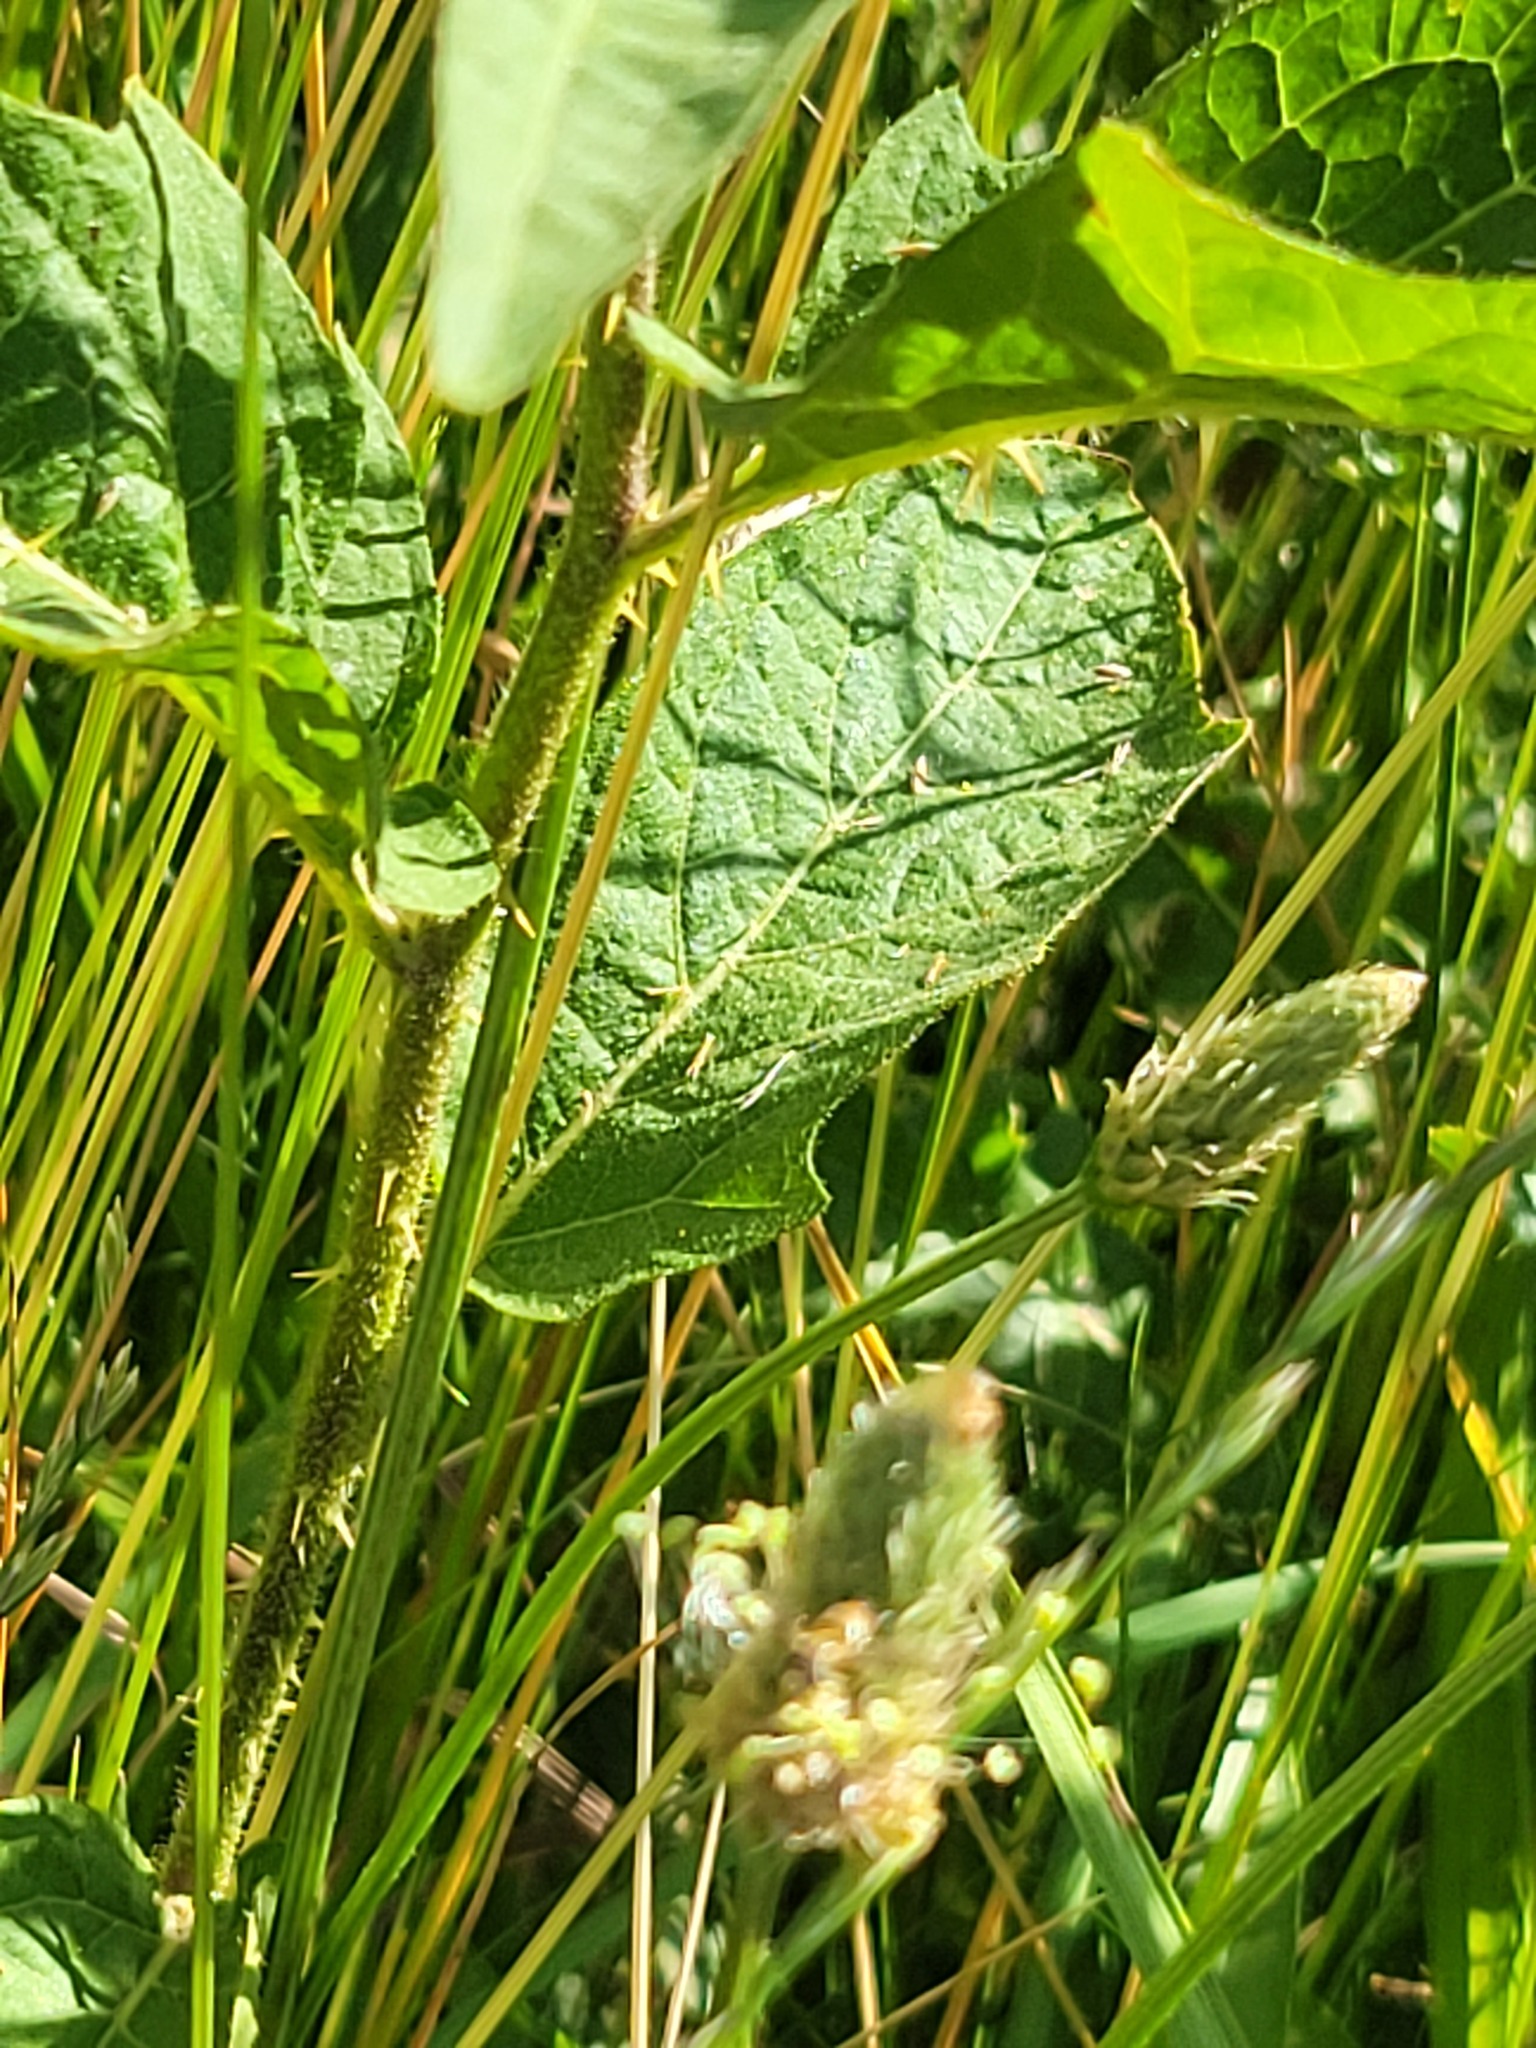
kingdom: Plantae
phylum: Tracheophyta
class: Magnoliopsida
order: Solanales
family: Solanaceae
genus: Solanum
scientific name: Solanum carolinense
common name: Horse-nettle
